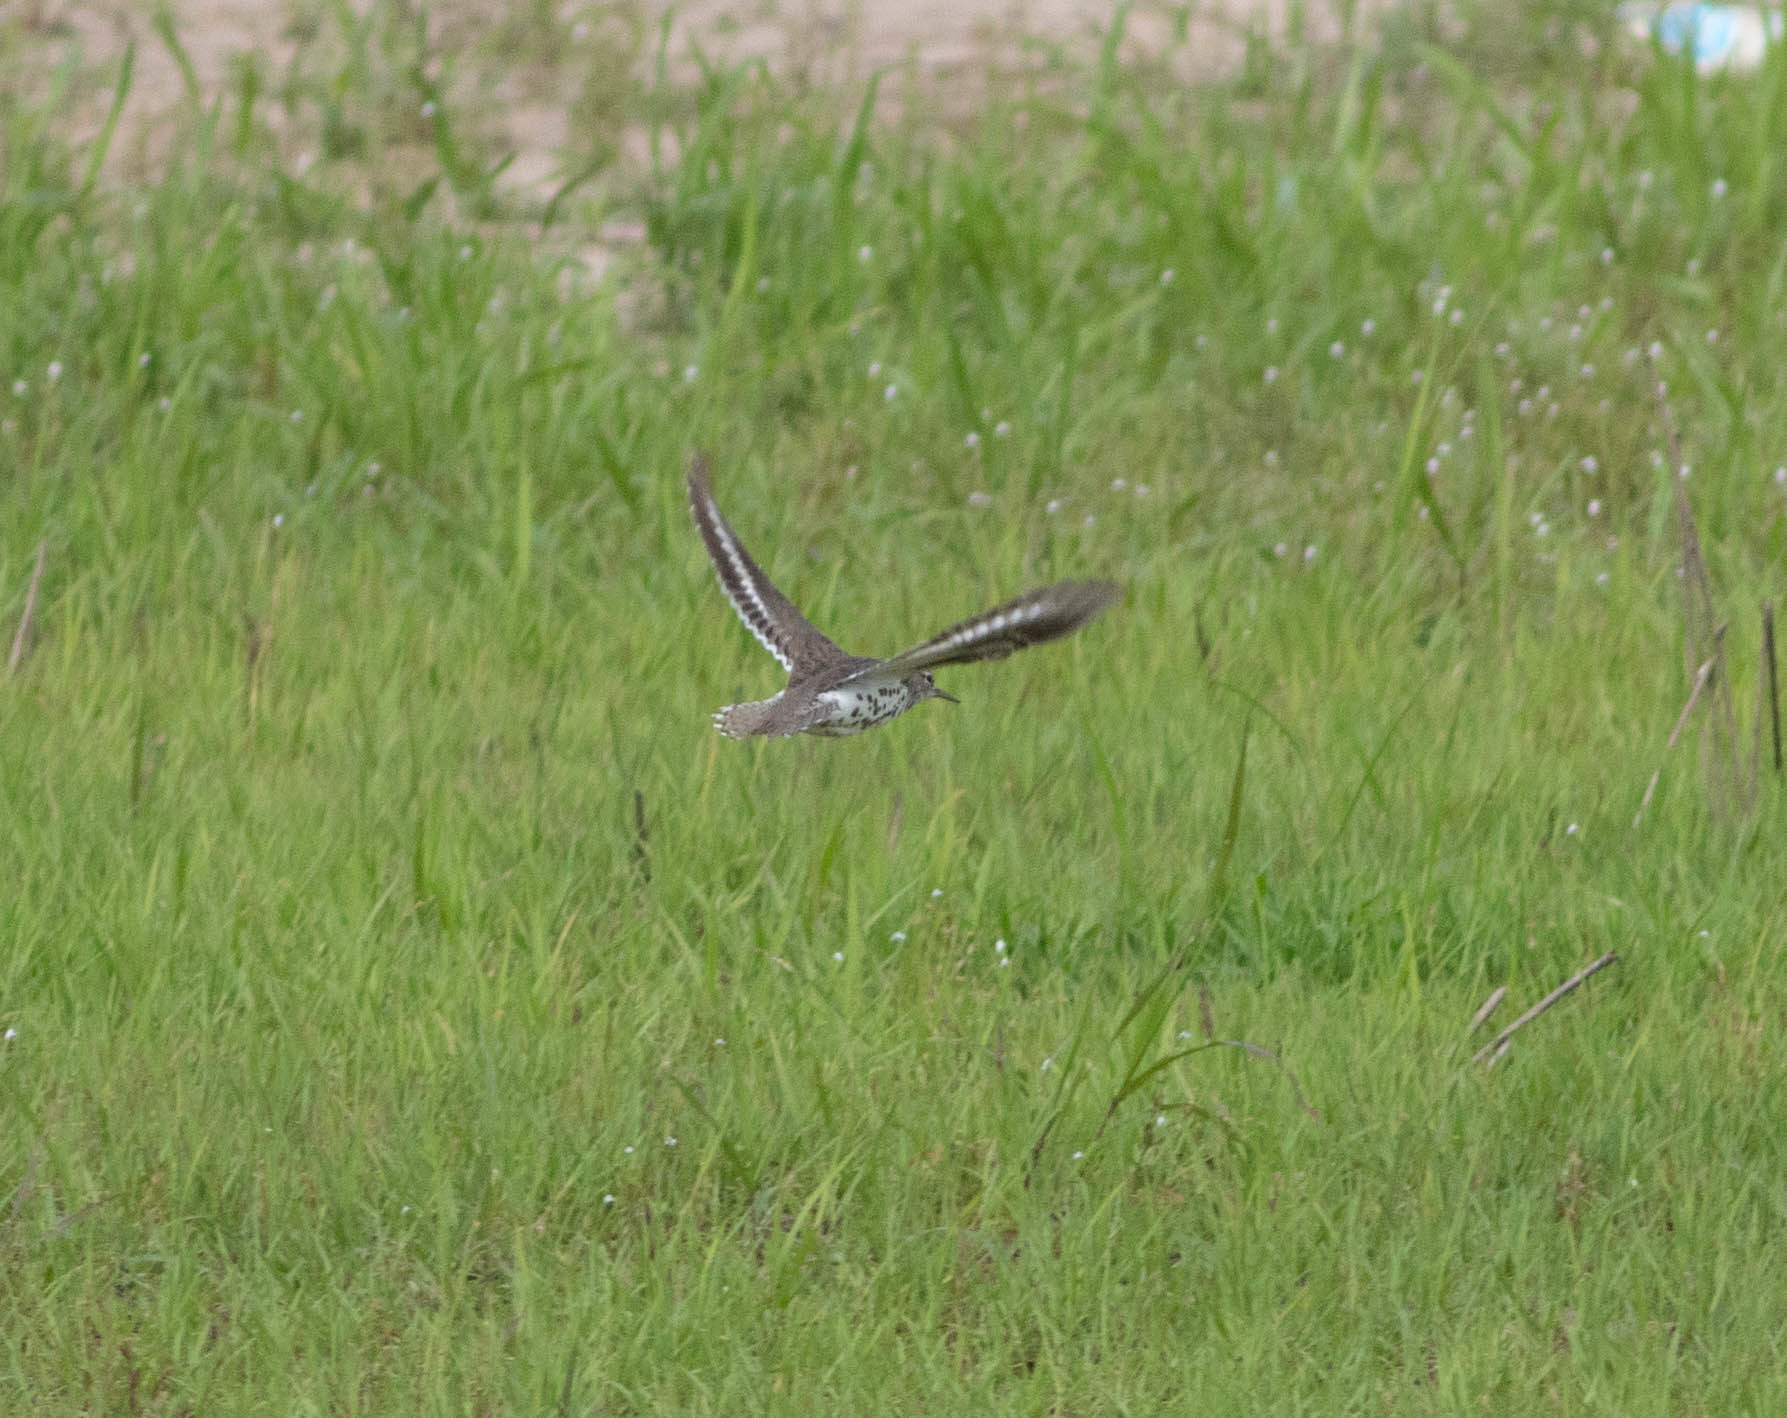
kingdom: Animalia
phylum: Chordata
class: Aves
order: Charadriiformes
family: Scolopacidae
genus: Actitis
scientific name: Actitis macularius
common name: Spotted sandpiper
